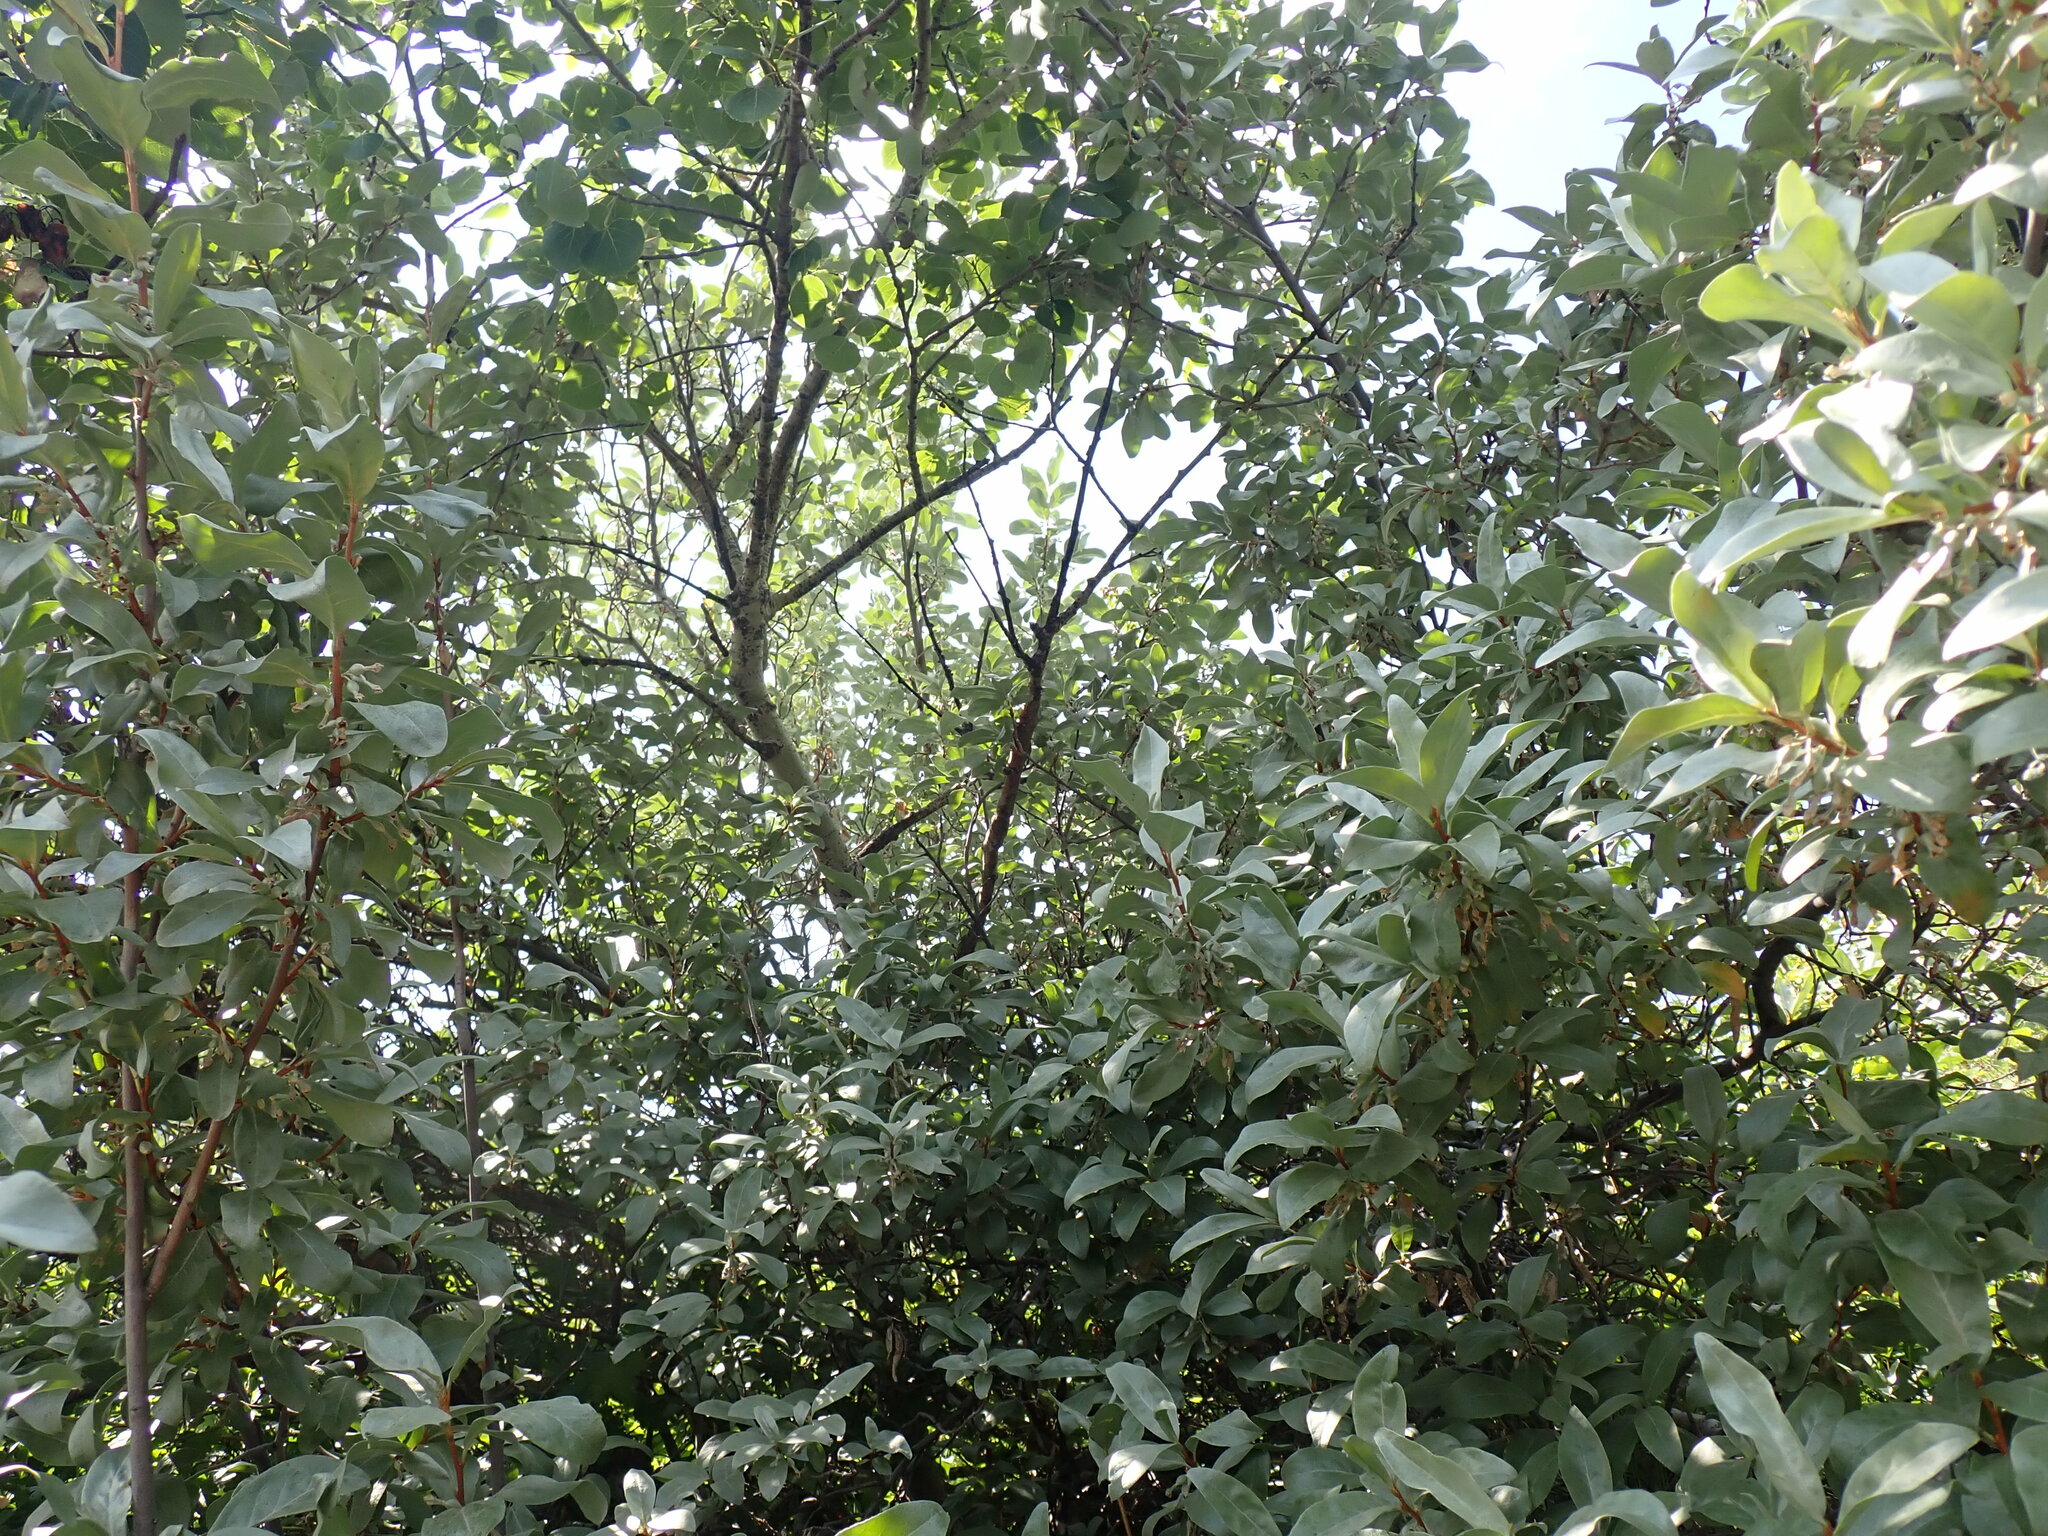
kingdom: Plantae
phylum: Tracheophyta
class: Magnoliopsida
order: Rosales
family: Elaeagnaceae
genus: Elaeagnus
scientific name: Elaeagnus commutata
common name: Silverberry
